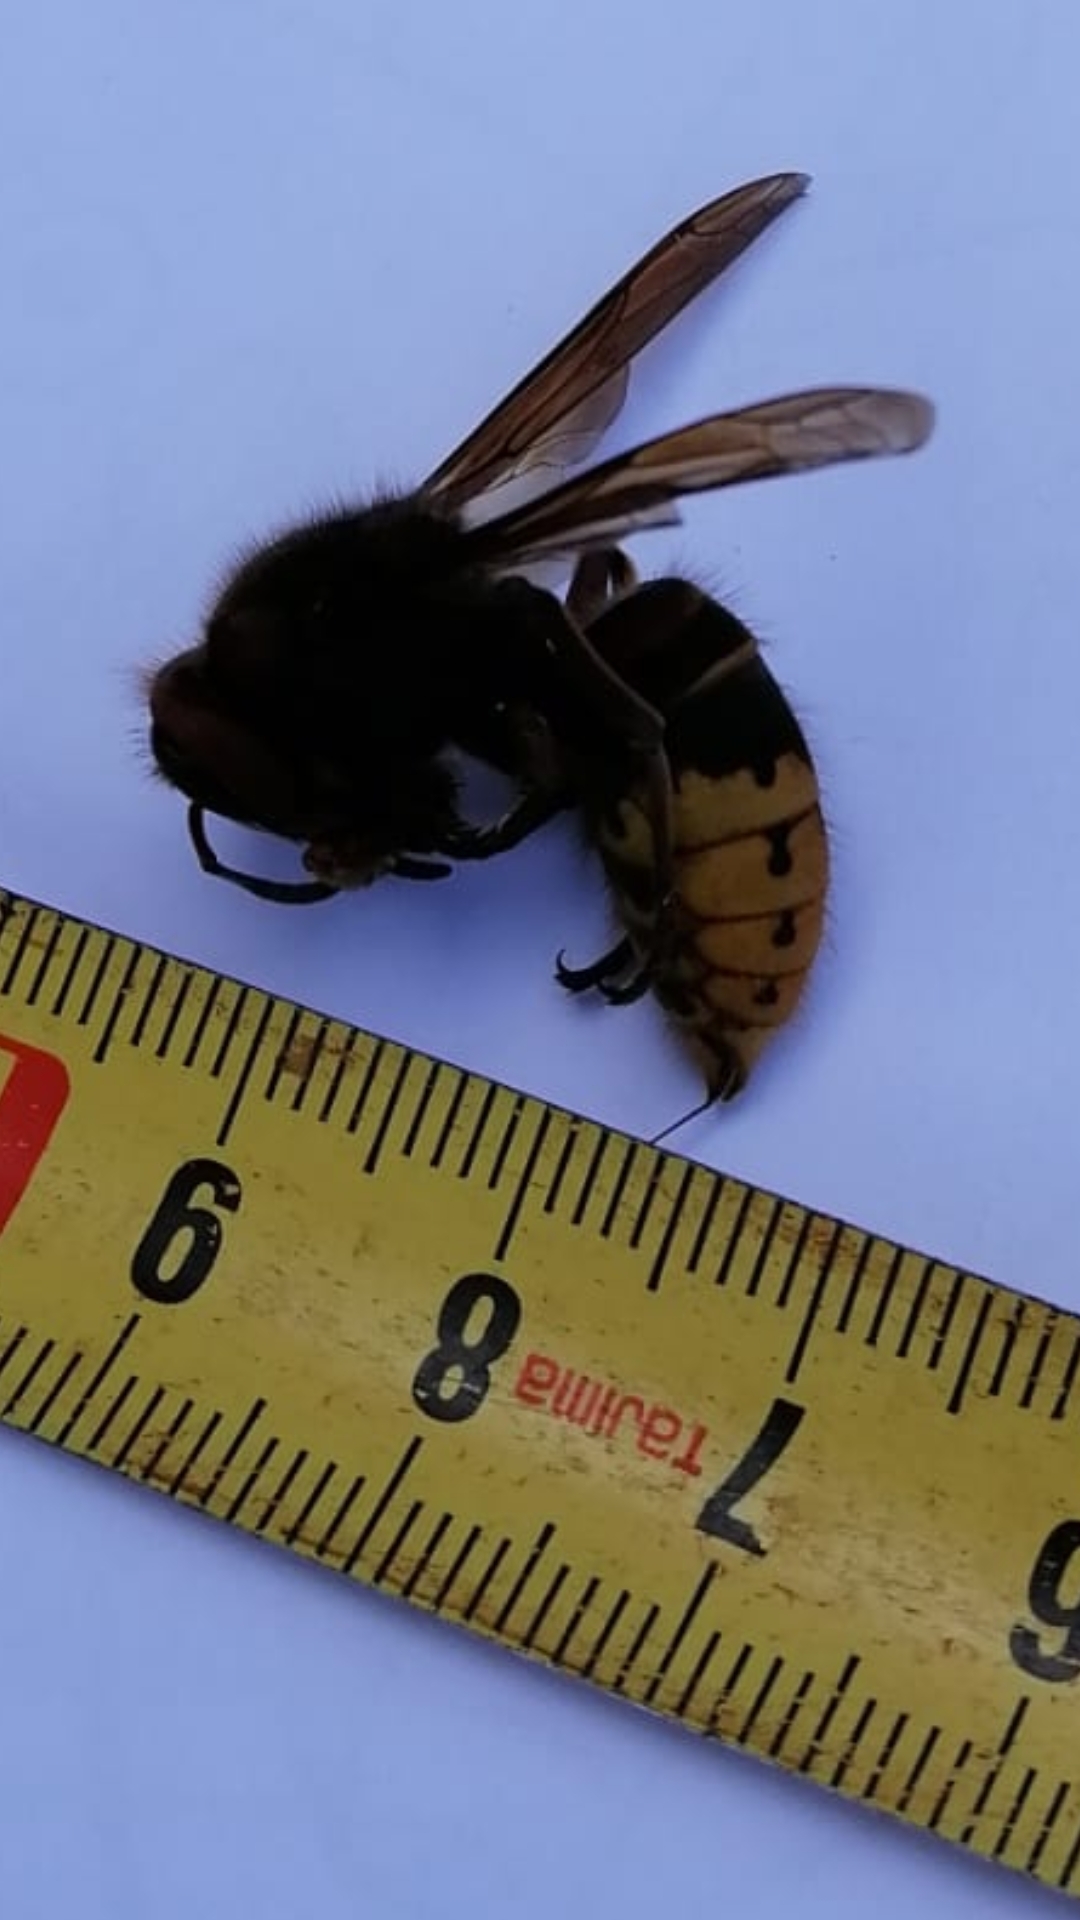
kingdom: Animalia
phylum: Arthropoda
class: Insecta
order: Hymenoptera
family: Vespidae
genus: Vespa
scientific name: Vespa crabro
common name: Hornet
